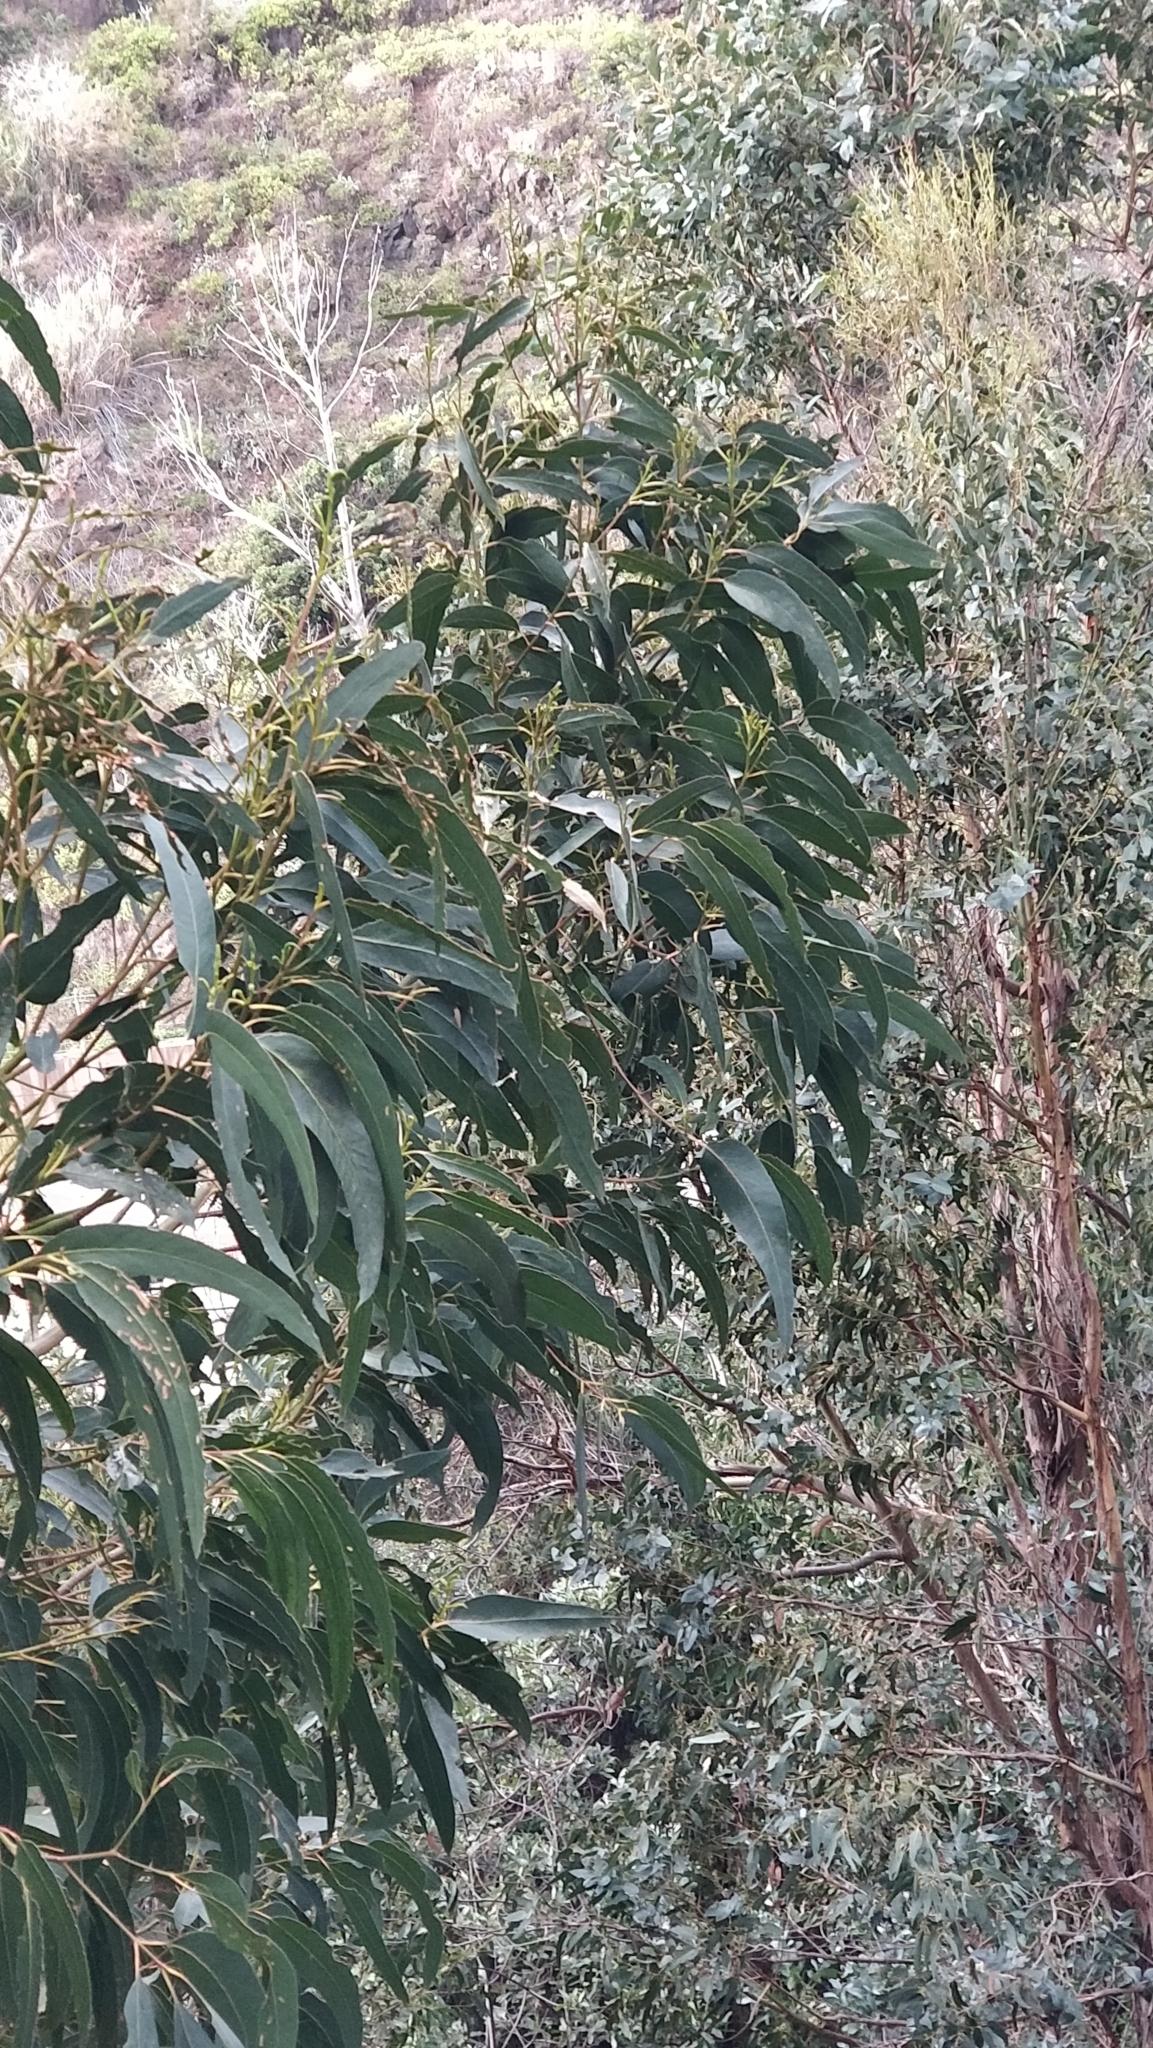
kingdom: Plantae
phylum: Tracheophyta
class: Magnoliopsida
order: Myrtales
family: Myrtaceae
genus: Eucalyptus
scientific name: Eucalyptus globulus
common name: Southern blue-gum
